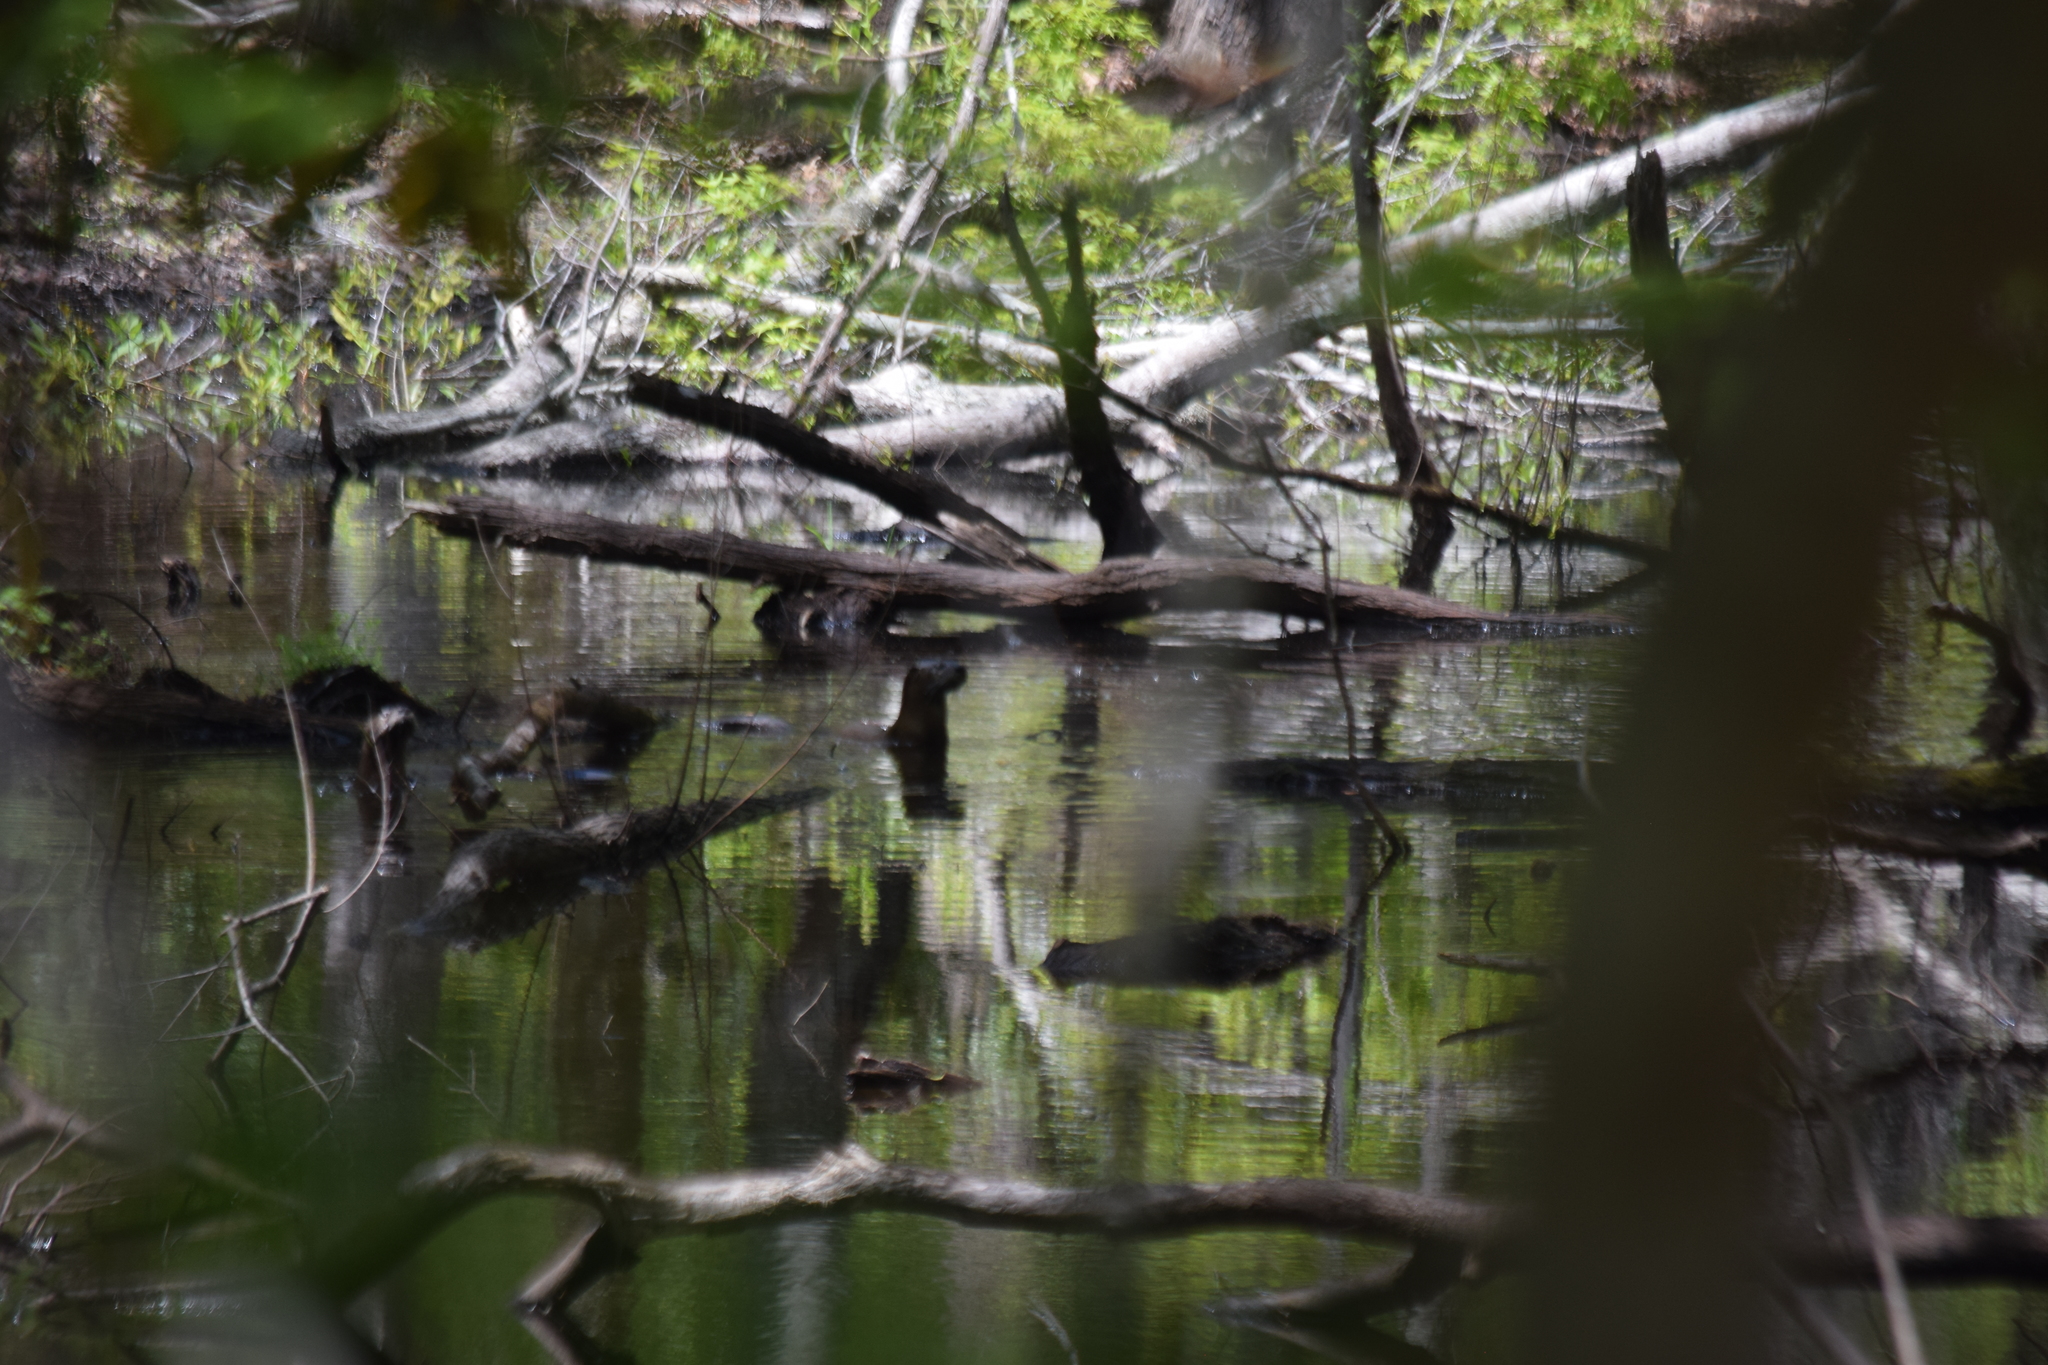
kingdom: Animalia
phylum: Chordata
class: Mammalia
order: Carnivora
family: Mustelidae
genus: Lontra
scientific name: Lontra canadensis
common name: North american river otter
